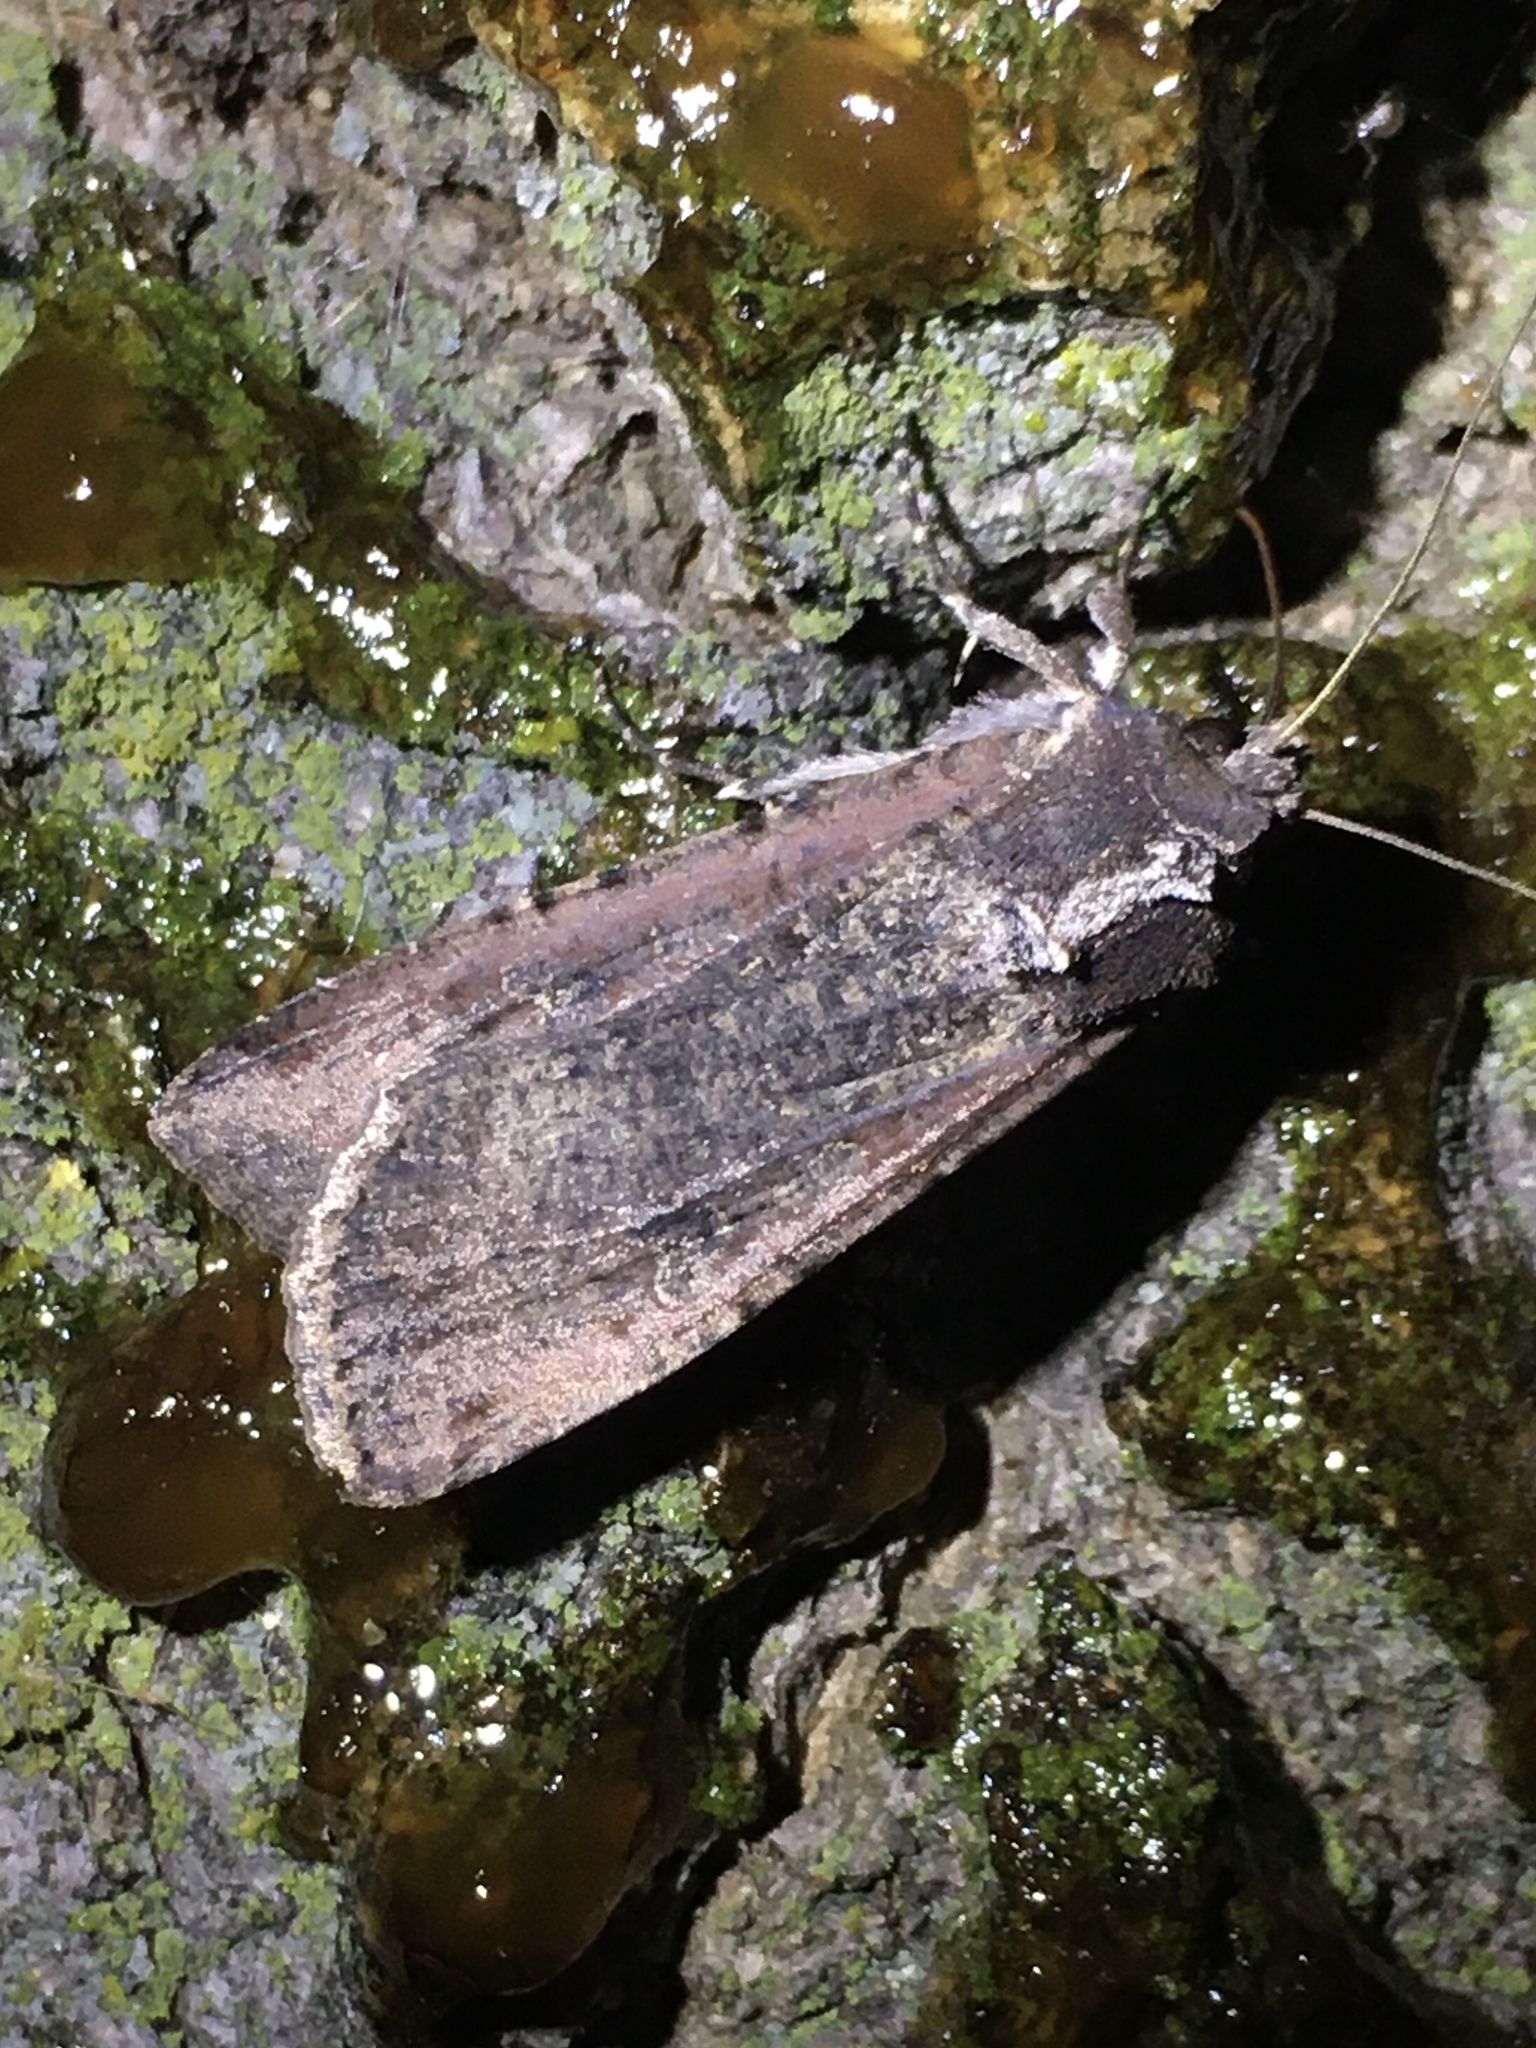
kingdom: Animalia
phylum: Arthropoda
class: Insecta
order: Lepidoptera
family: Noctuidae
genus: Peridroma
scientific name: Peridroma saucia
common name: Pearly underwing
